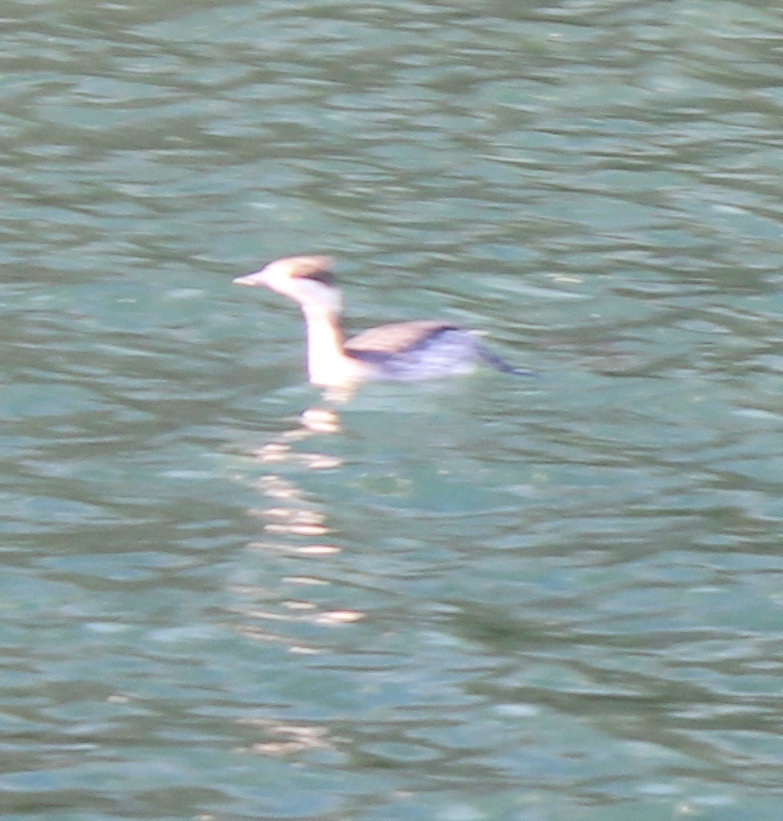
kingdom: Animalia
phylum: Chordata
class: Aves
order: Podicipediformes
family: Podicipedidae
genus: Podiceps
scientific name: Podiceps auritus
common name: Horned grebe
